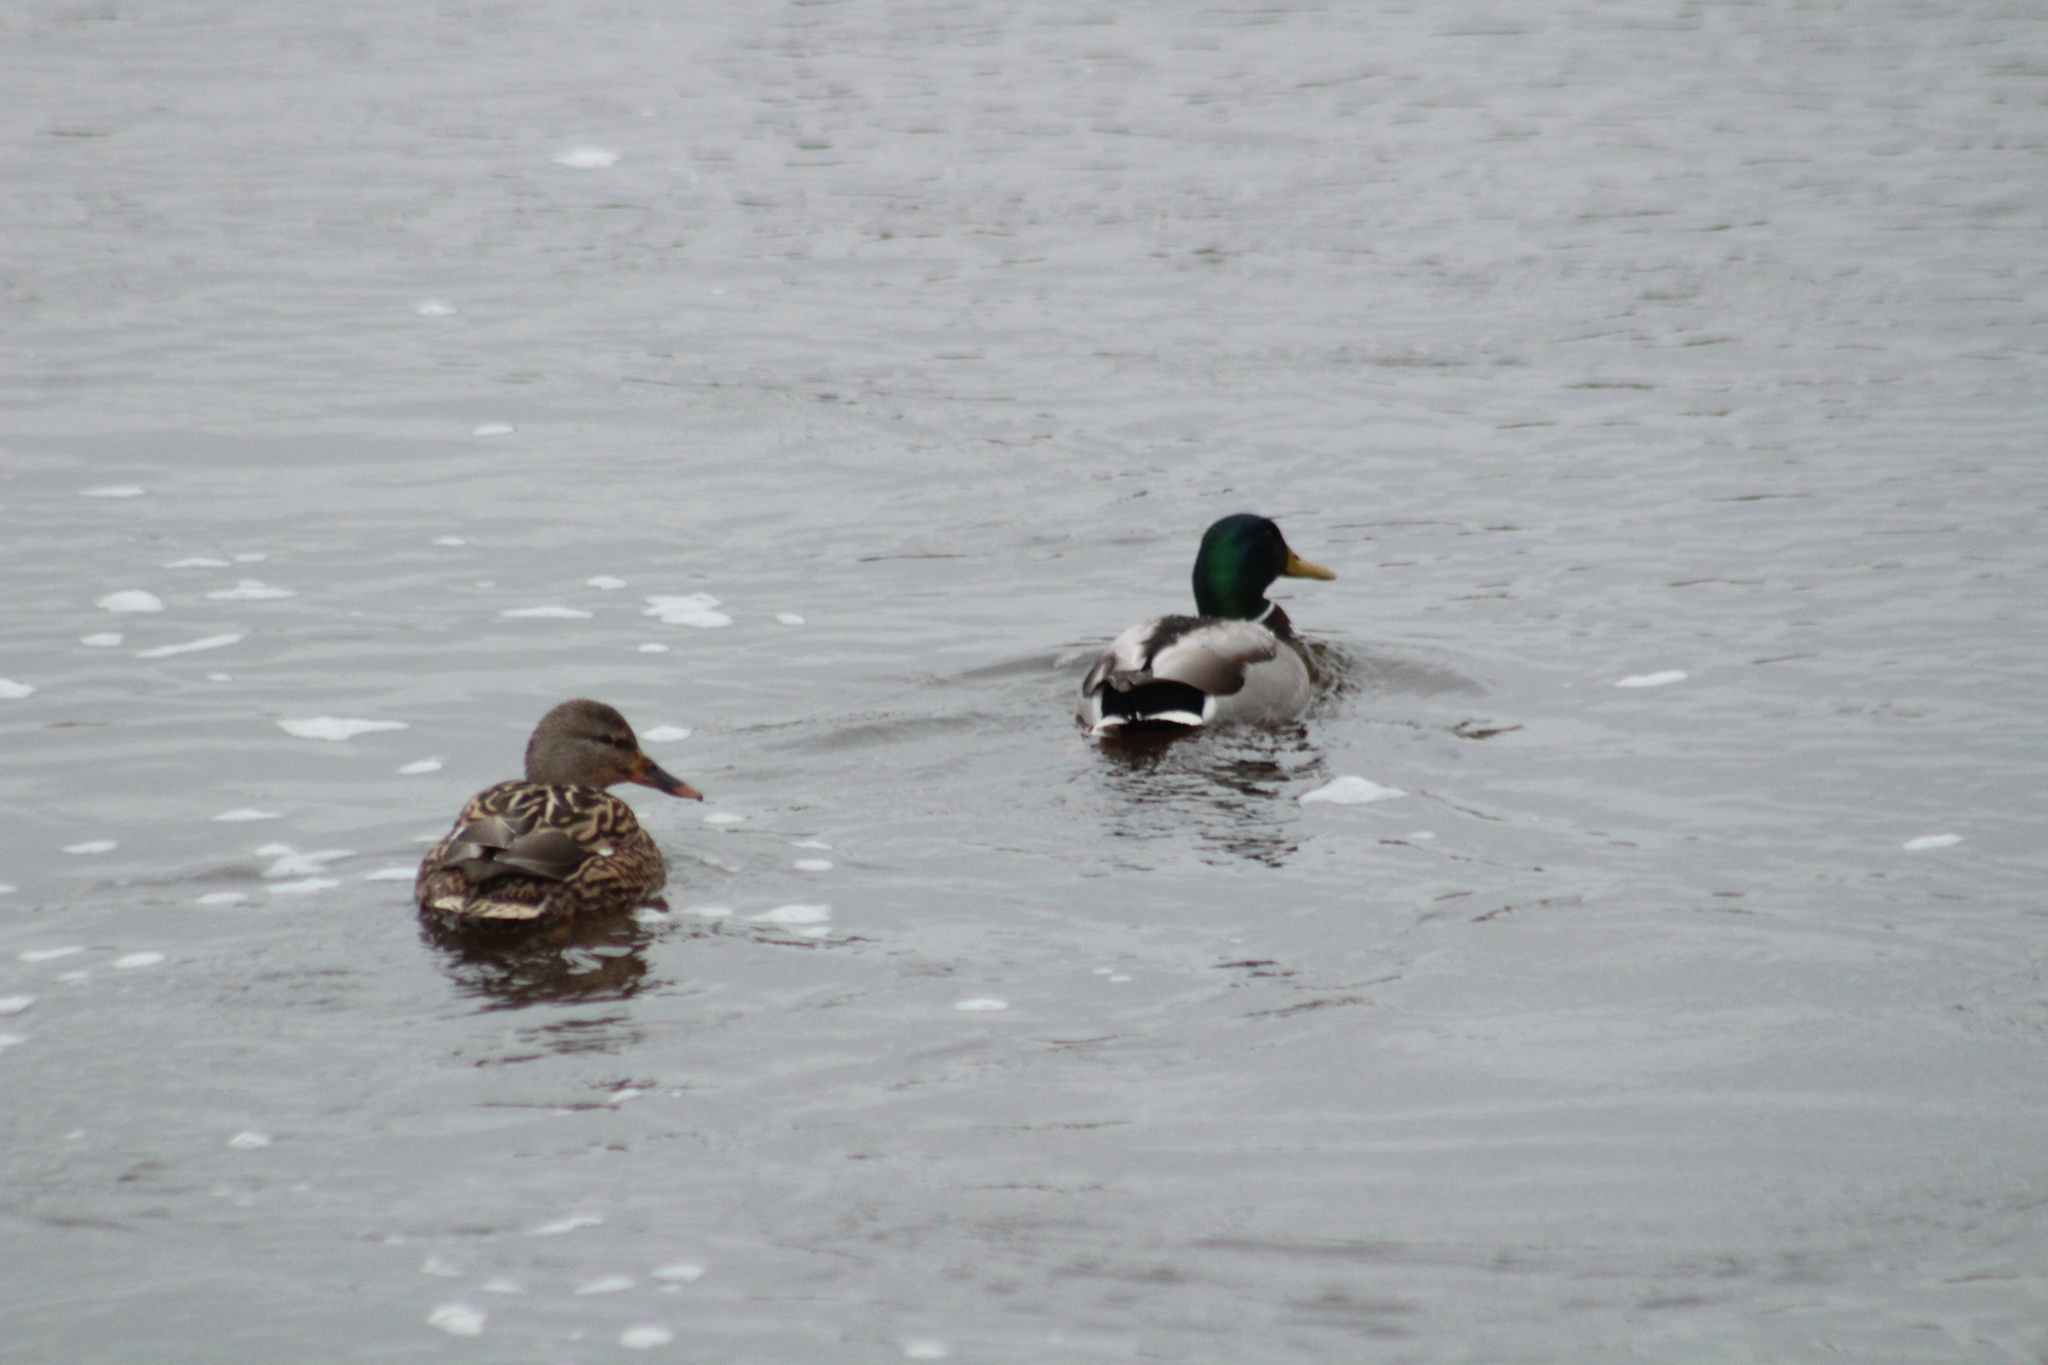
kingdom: Animalia
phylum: Chordata
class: Aves
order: Anseriformes
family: Anatidae
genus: Anas
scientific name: Anas platyrhynchos
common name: Mallard
